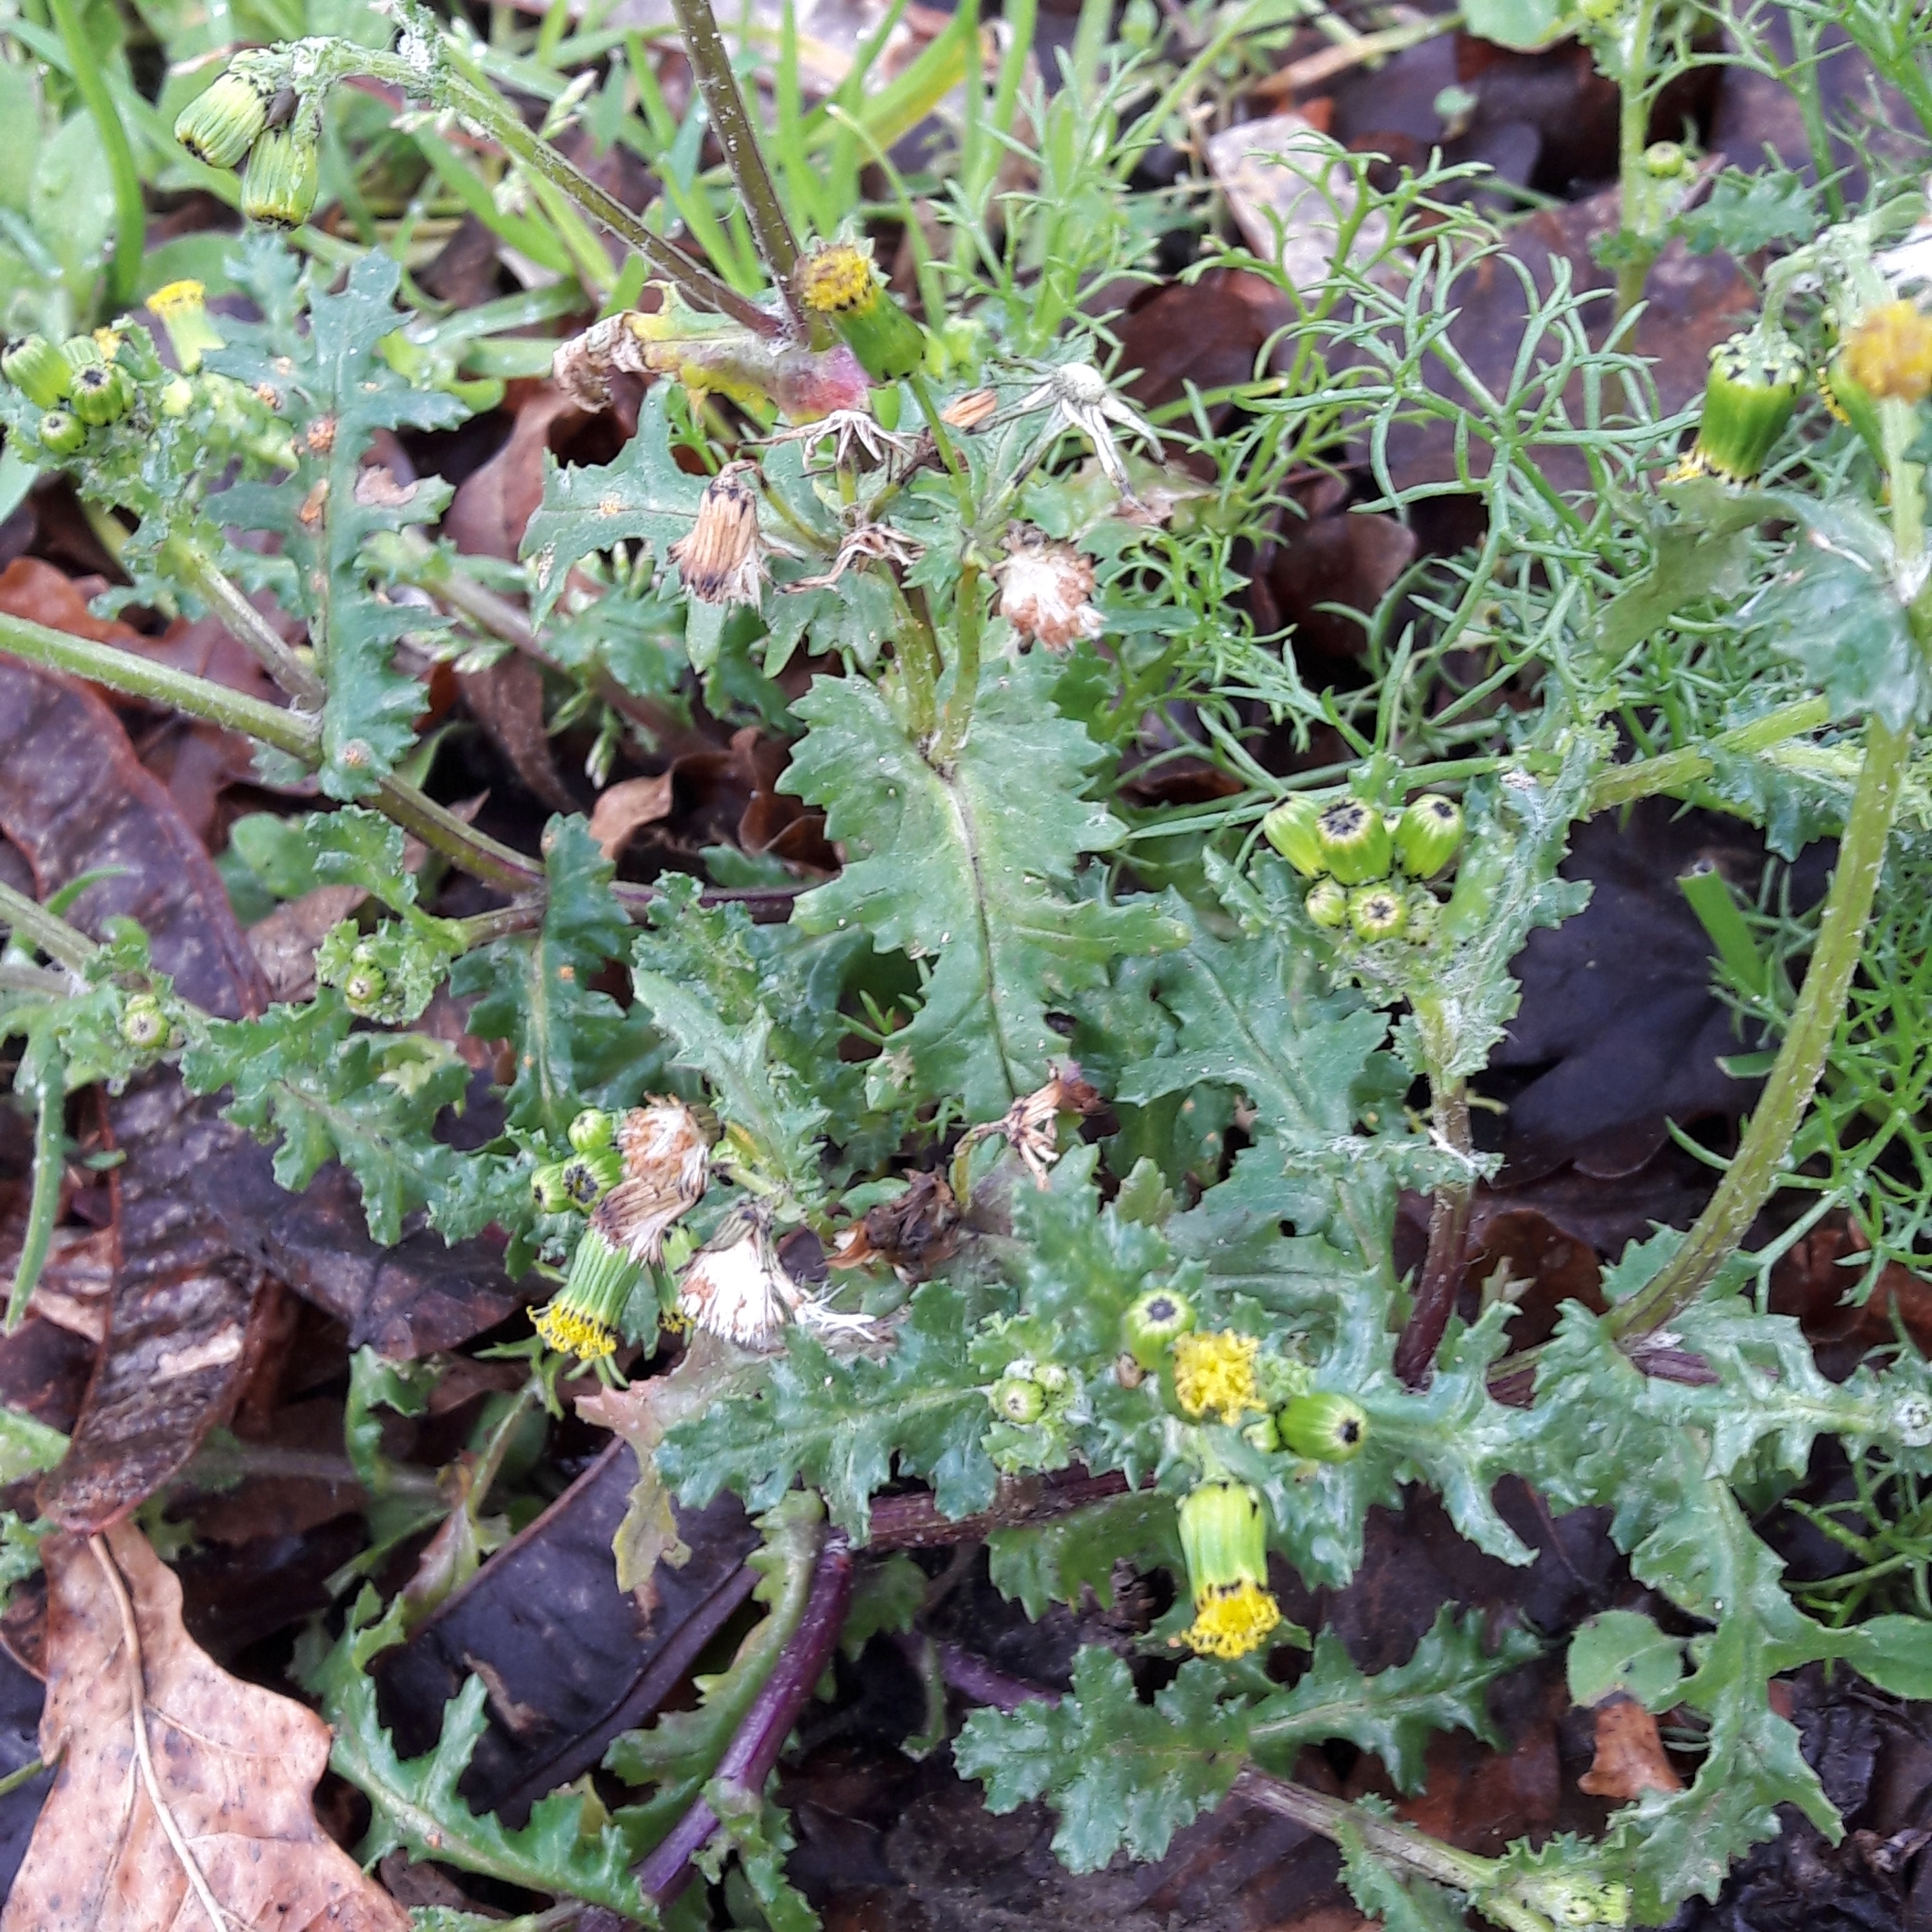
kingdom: Plantae
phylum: Tracheophyta
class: Magnoliopsida
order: Asterales
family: Asteraceae
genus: Senecio
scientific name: Senecio vulgaris
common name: Old-man-in-the-spring
